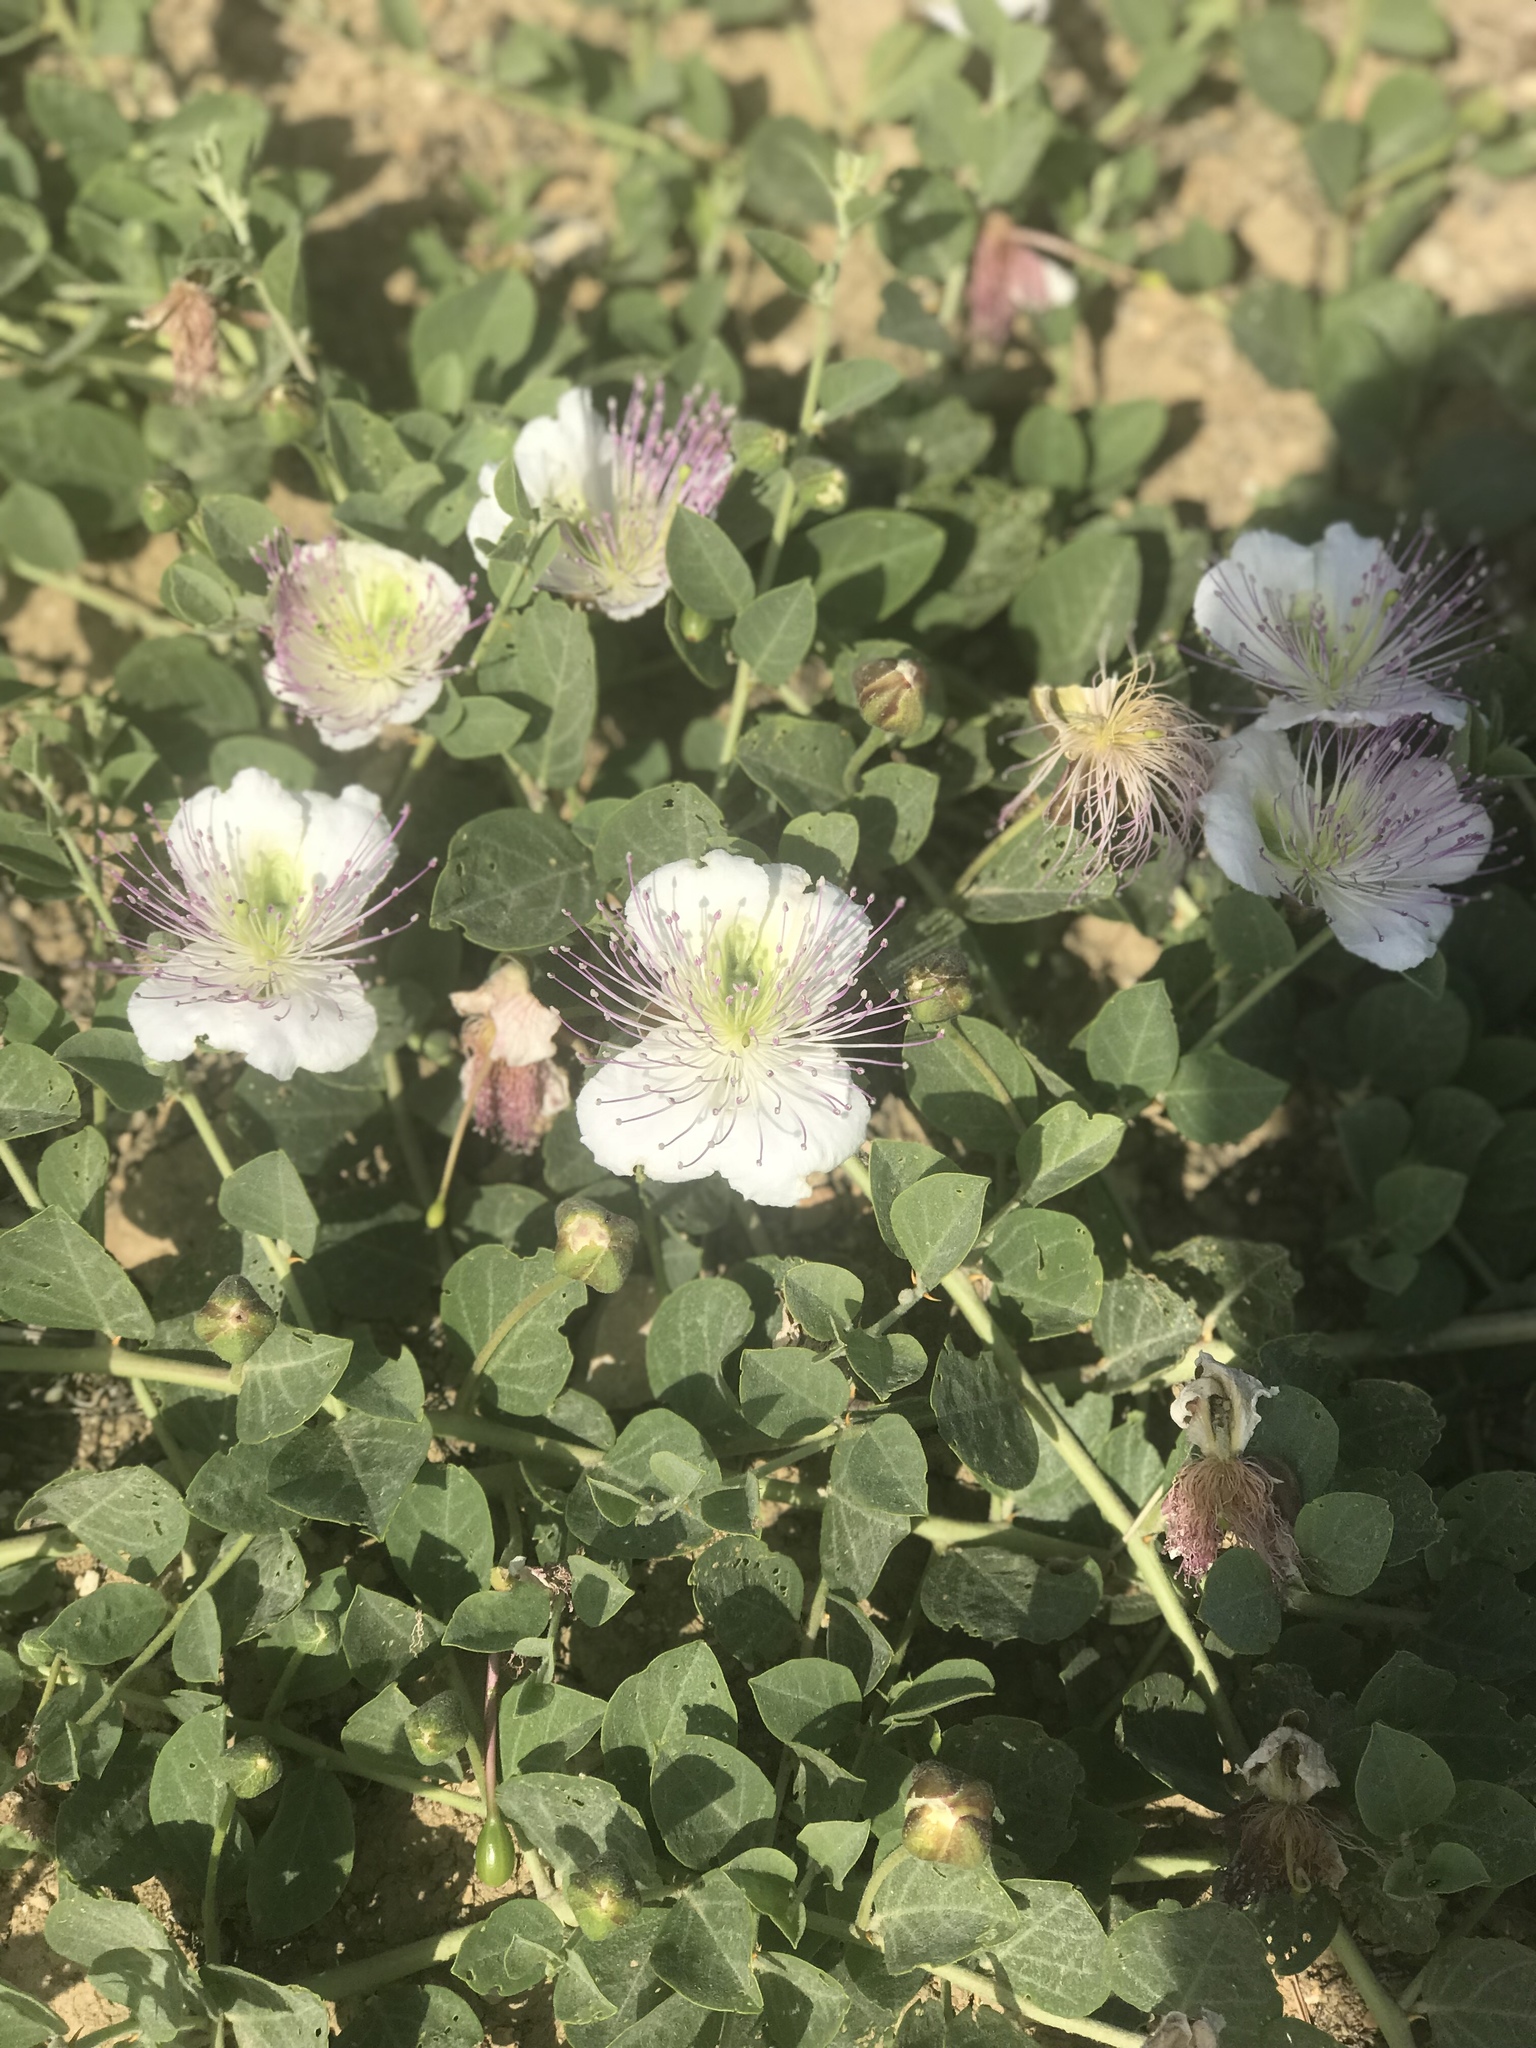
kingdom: Plantae
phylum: Tracheophyta
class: Magnoliopsida
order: Brassicales
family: Capparaceae
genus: Capparis
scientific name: Capparis spinosa
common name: Caper
